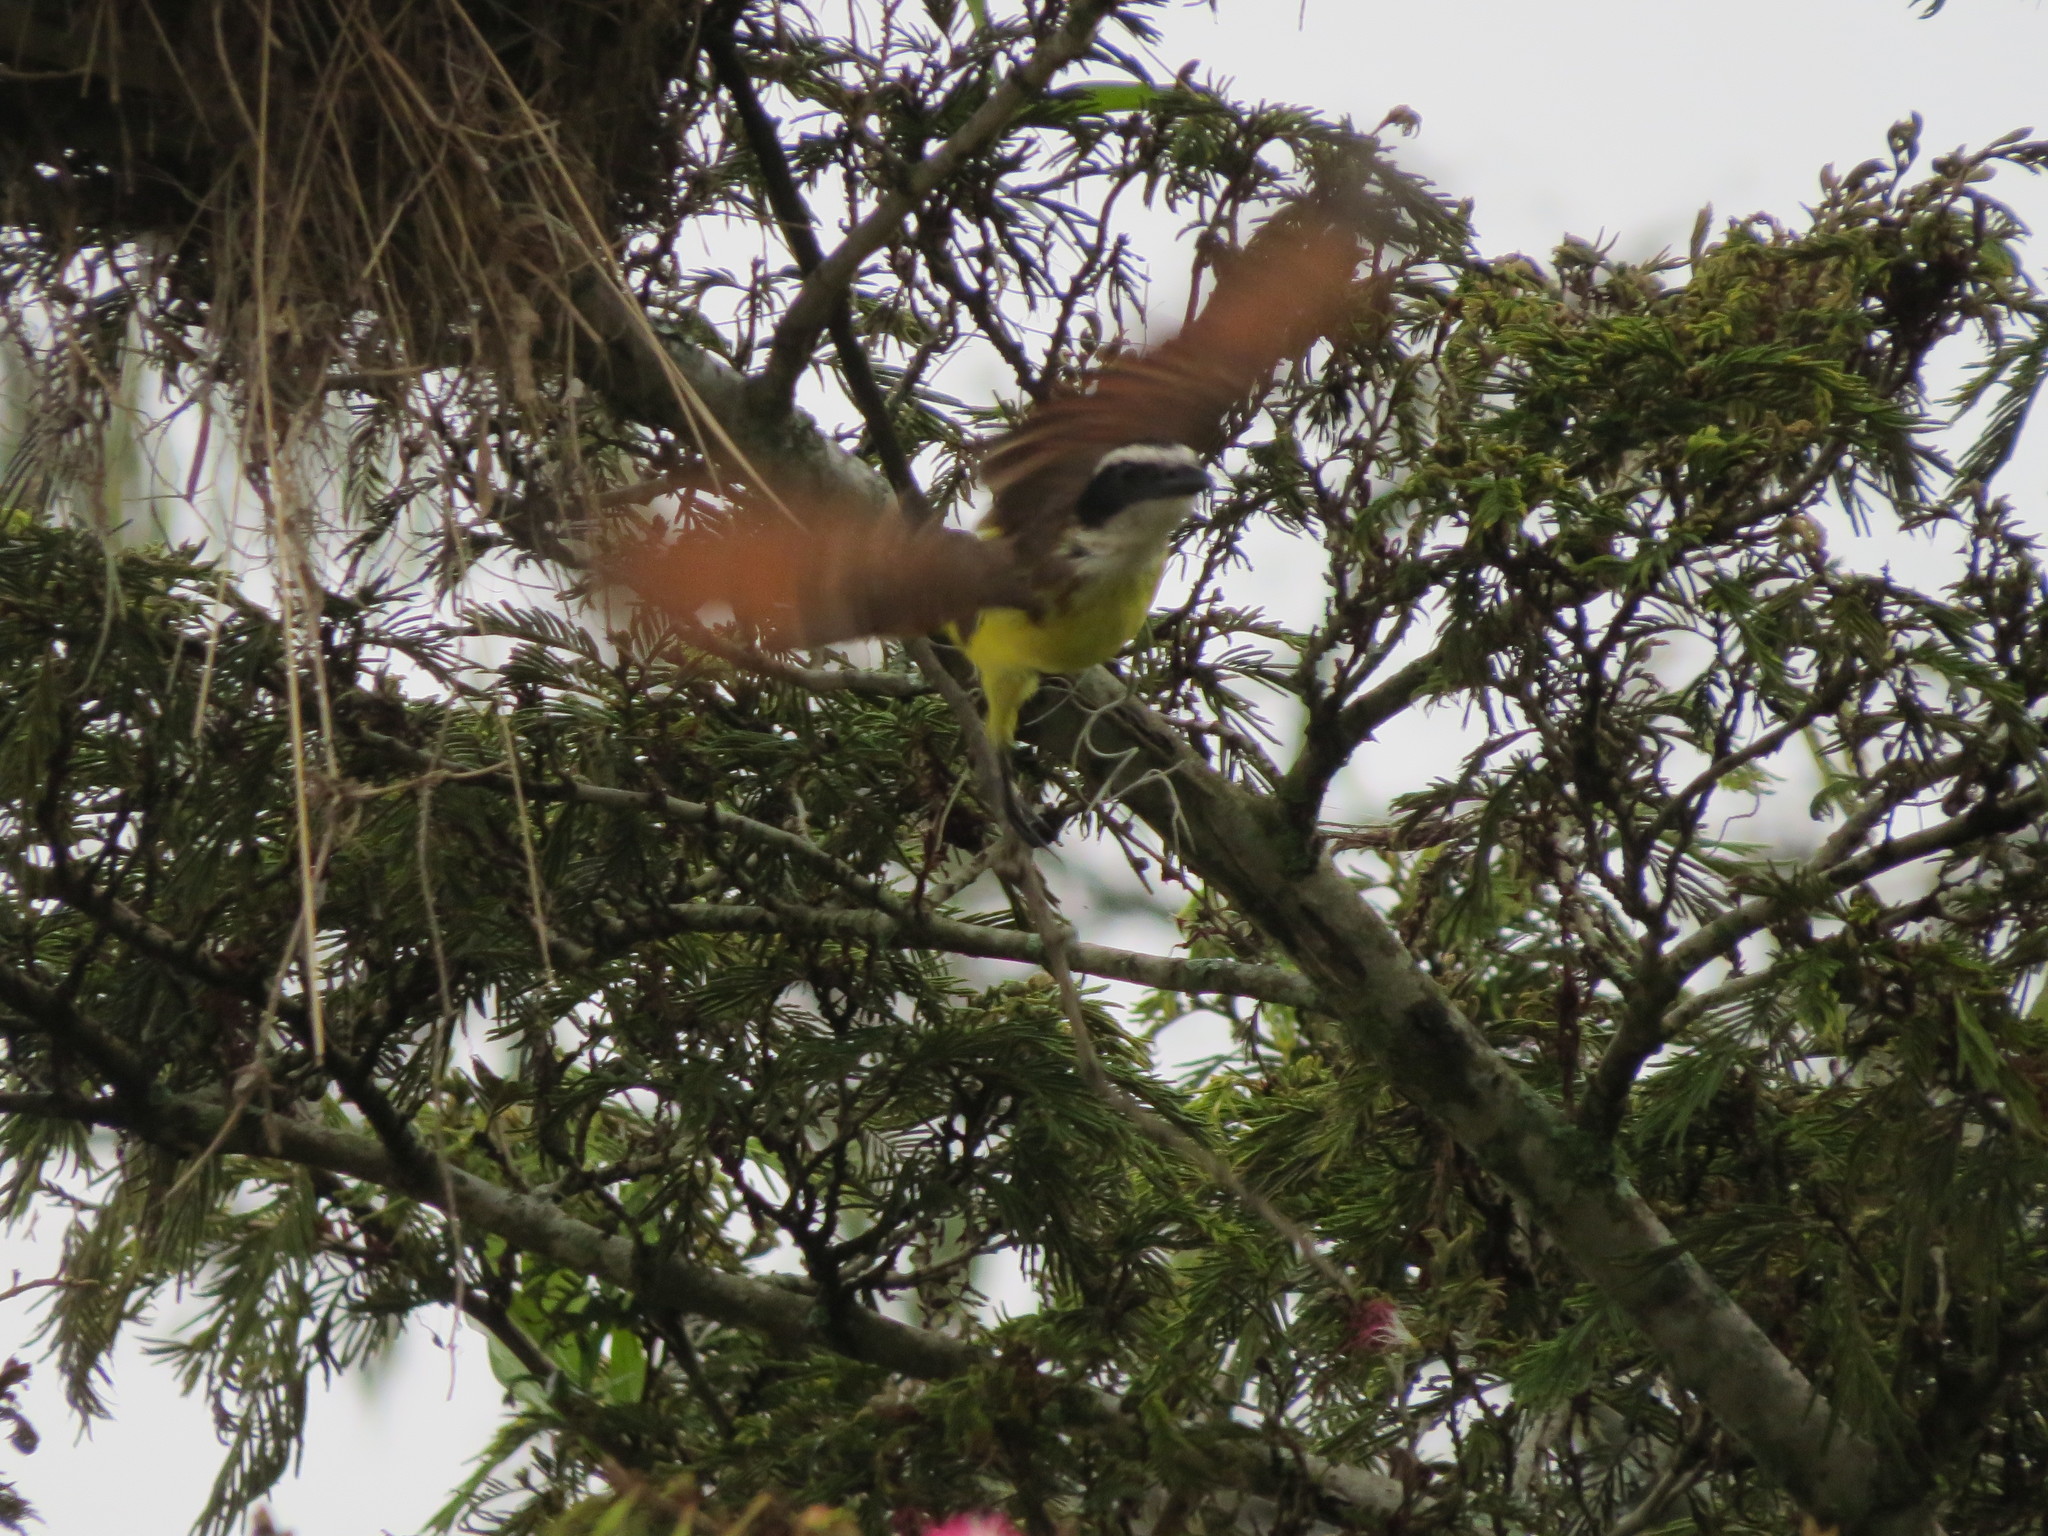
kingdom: Animalia
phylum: Chordata
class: Aves
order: Passeriformes
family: Tyrannidae
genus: Pitangus
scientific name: Pitangus sulphuratus
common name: Great kiskadee
